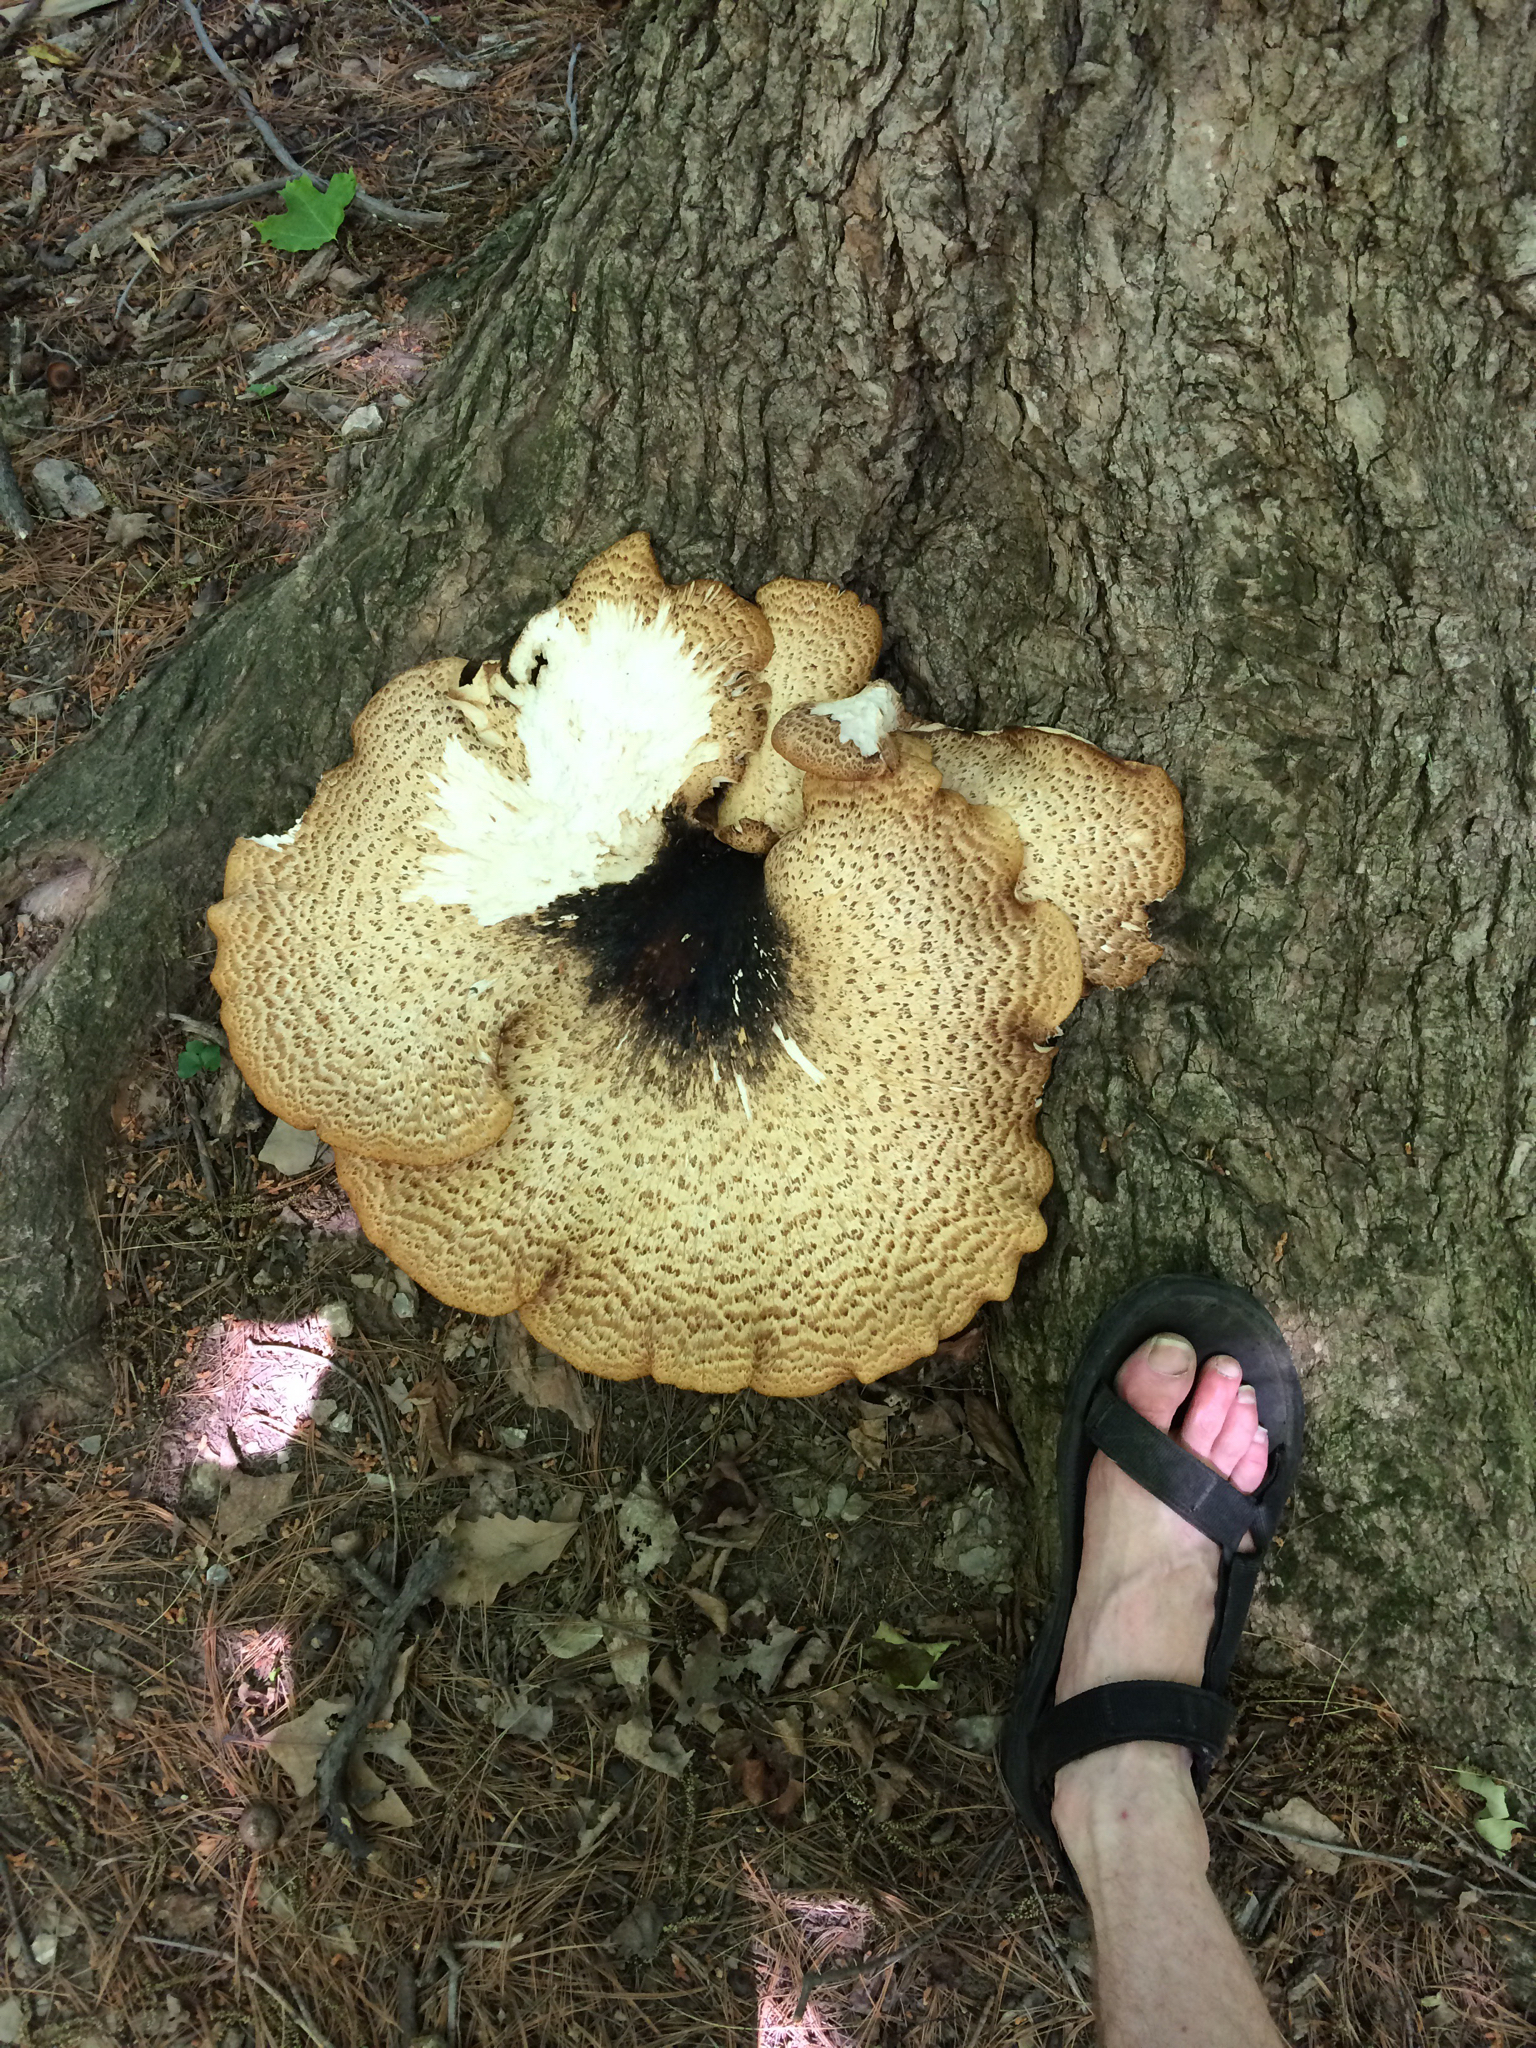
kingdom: Fungi
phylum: Basidiomycota
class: Agaricomycetes
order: Polyporales
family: Polyporaceae
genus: Cerioporus
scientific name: Cerioporus squamosus
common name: Dryad's saddle
